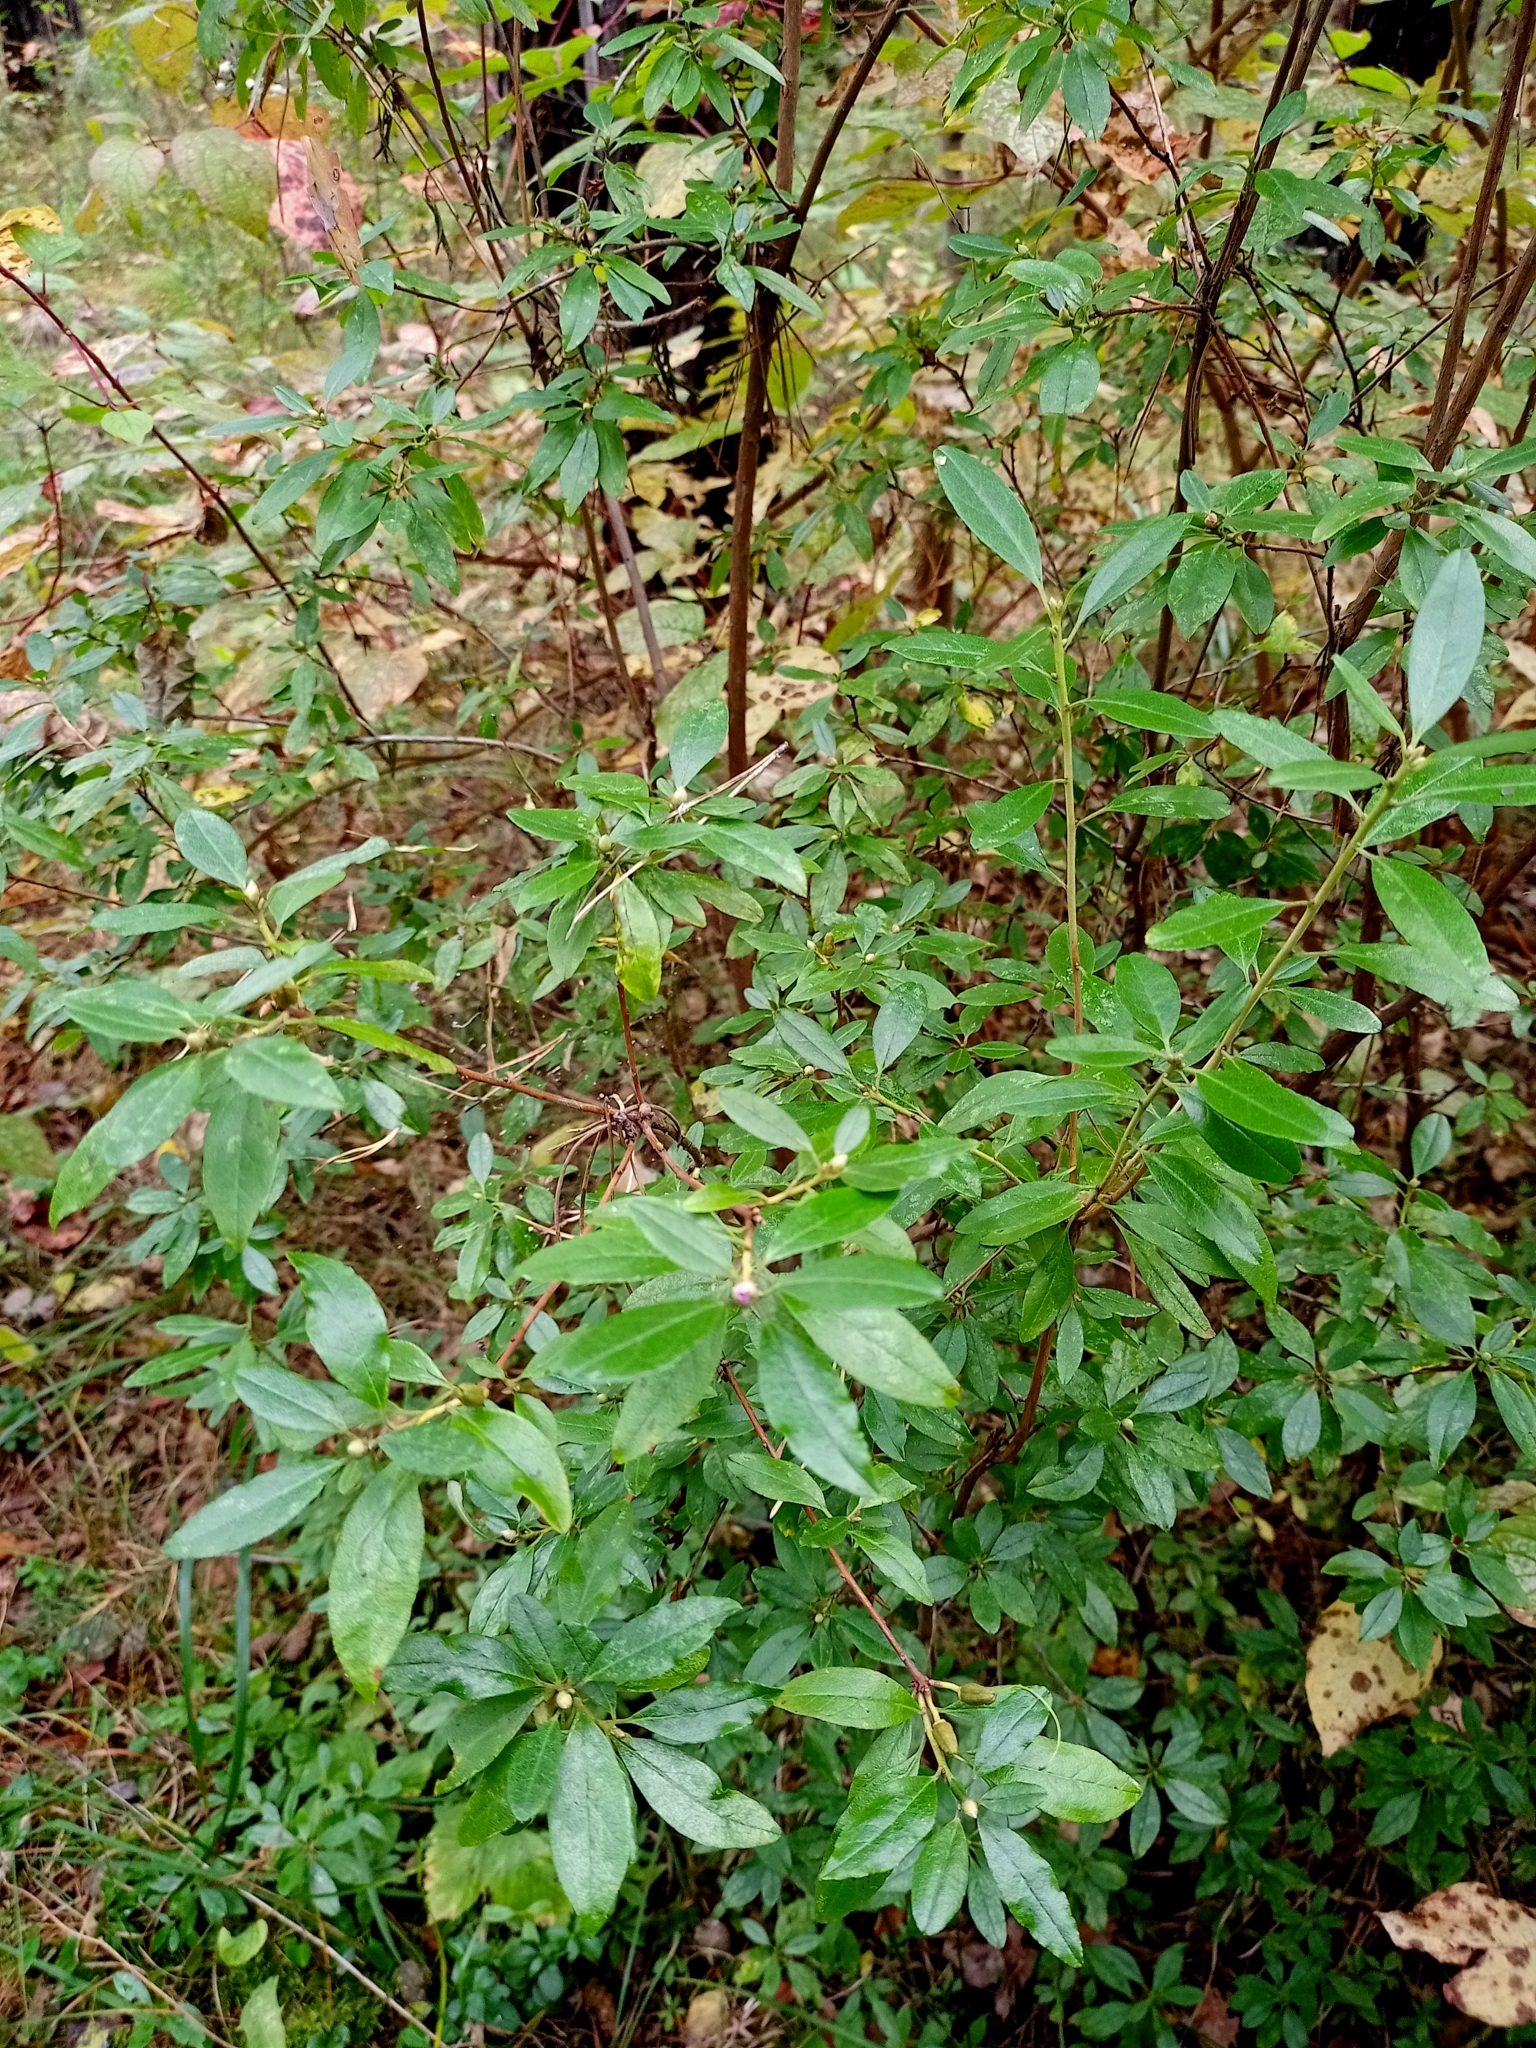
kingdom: Plantae
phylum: Tracheophyta
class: Magnoliopsida
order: Ericales
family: Ericaceae
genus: Rhododendron
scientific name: Rhododendron dauricum
